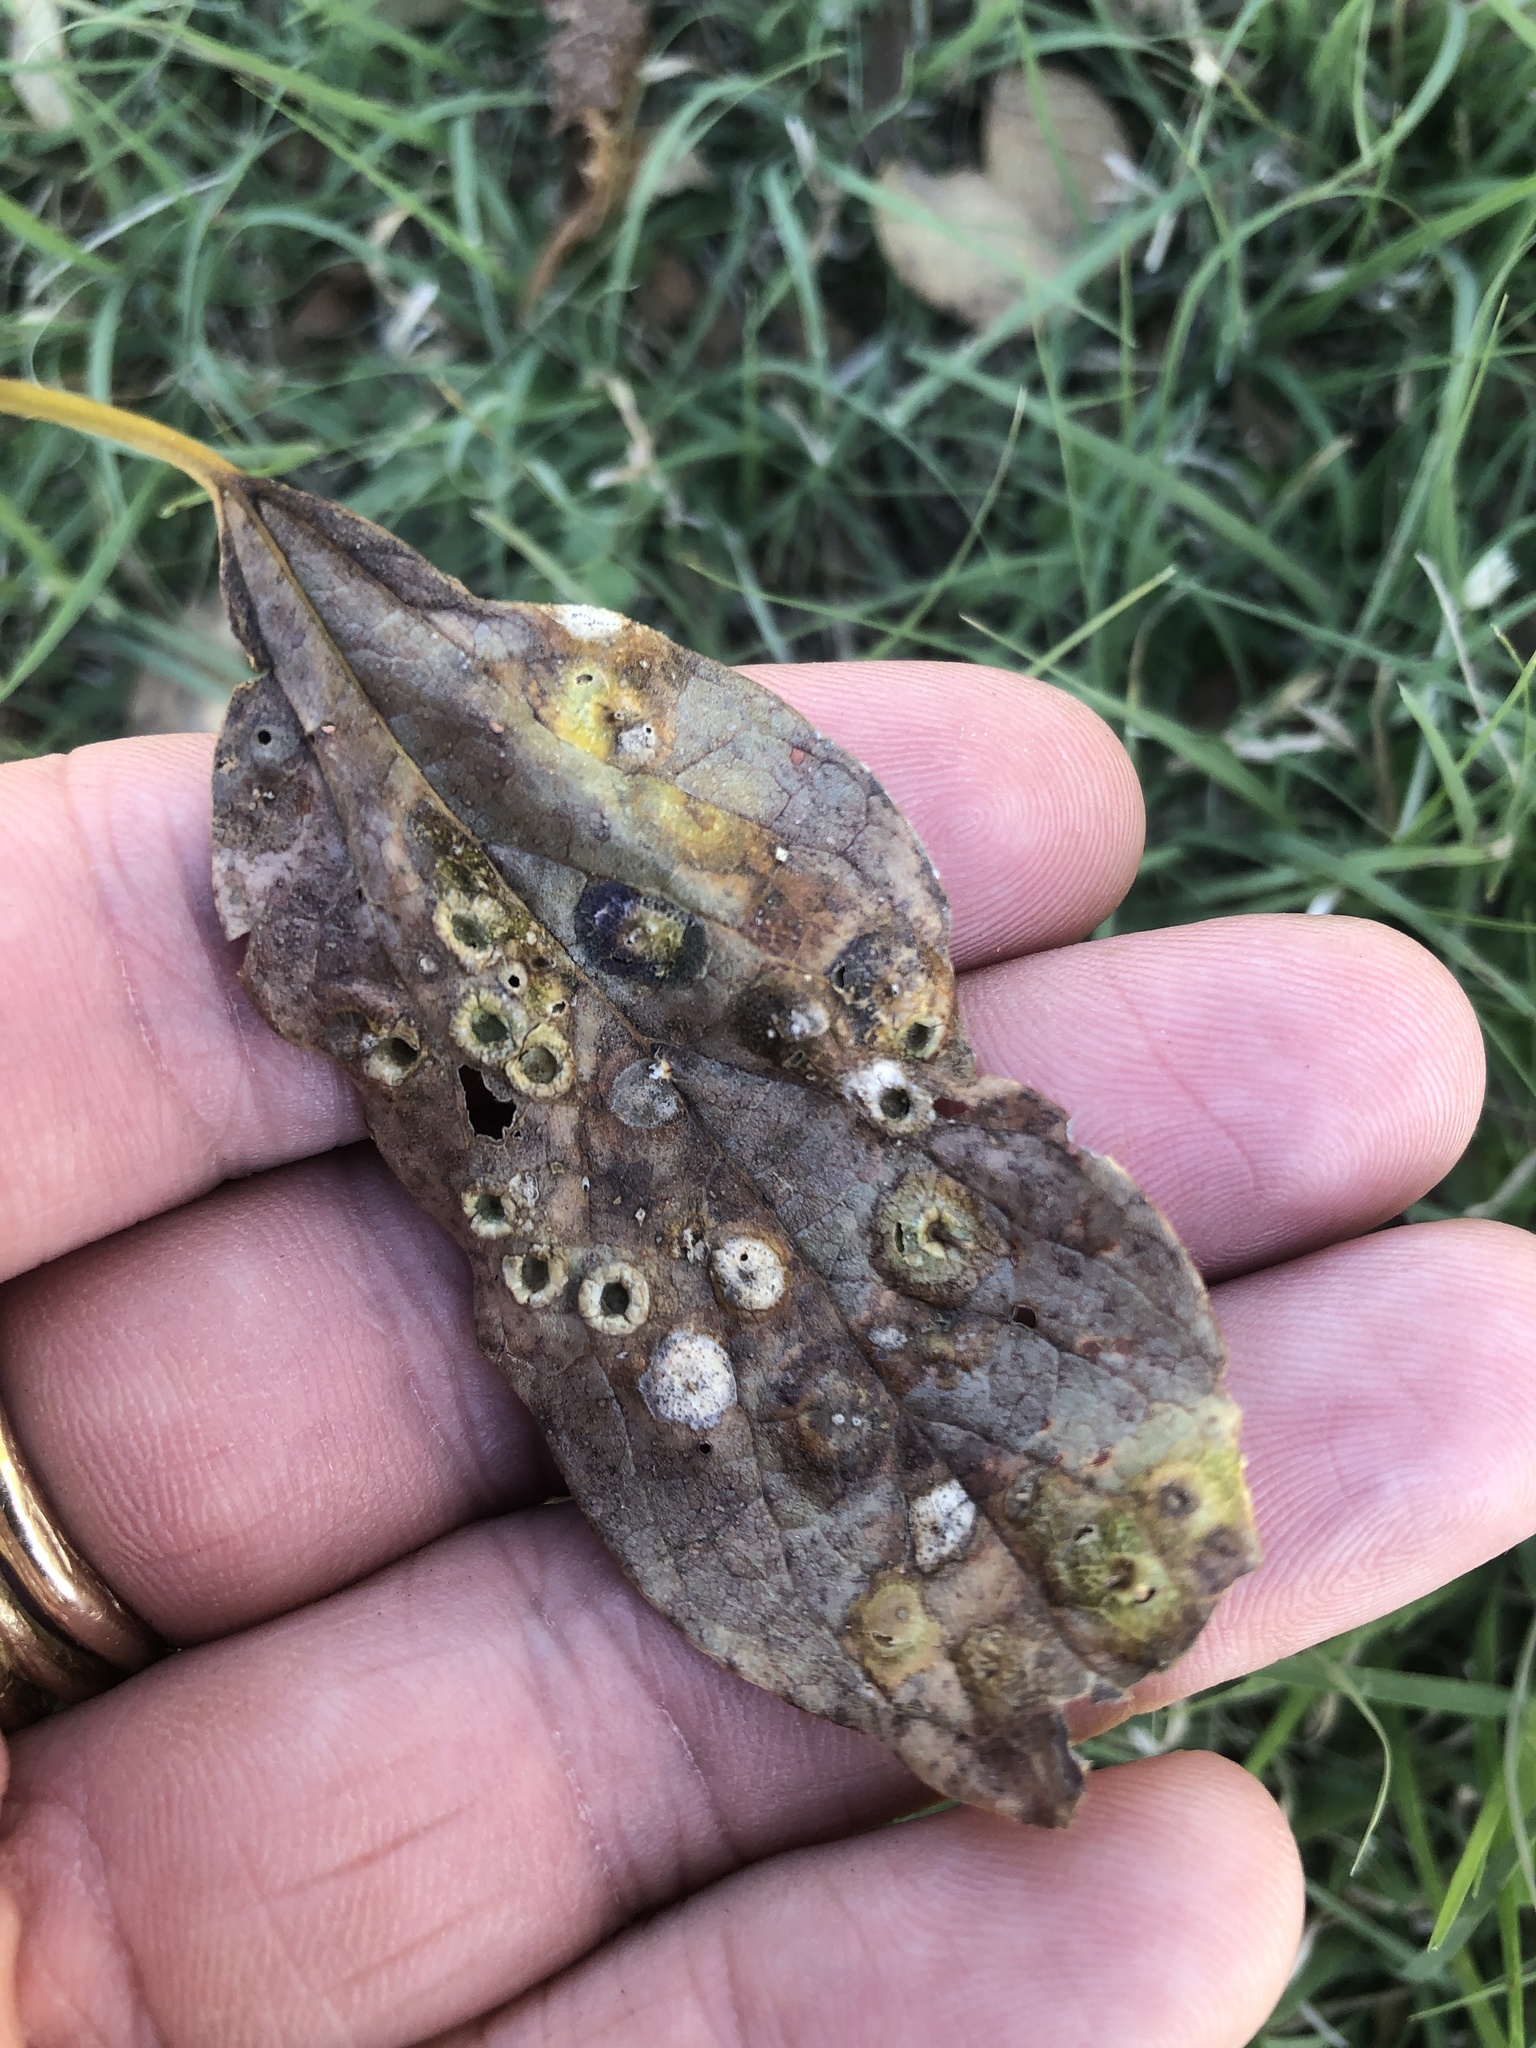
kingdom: Animalia
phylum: Arthropoda
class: Insecta
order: Hemiptera
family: Aphalaridae
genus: Pachypsylla
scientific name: Pachypsylla celtidismamma
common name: Hackberry nipplegall psyllid
